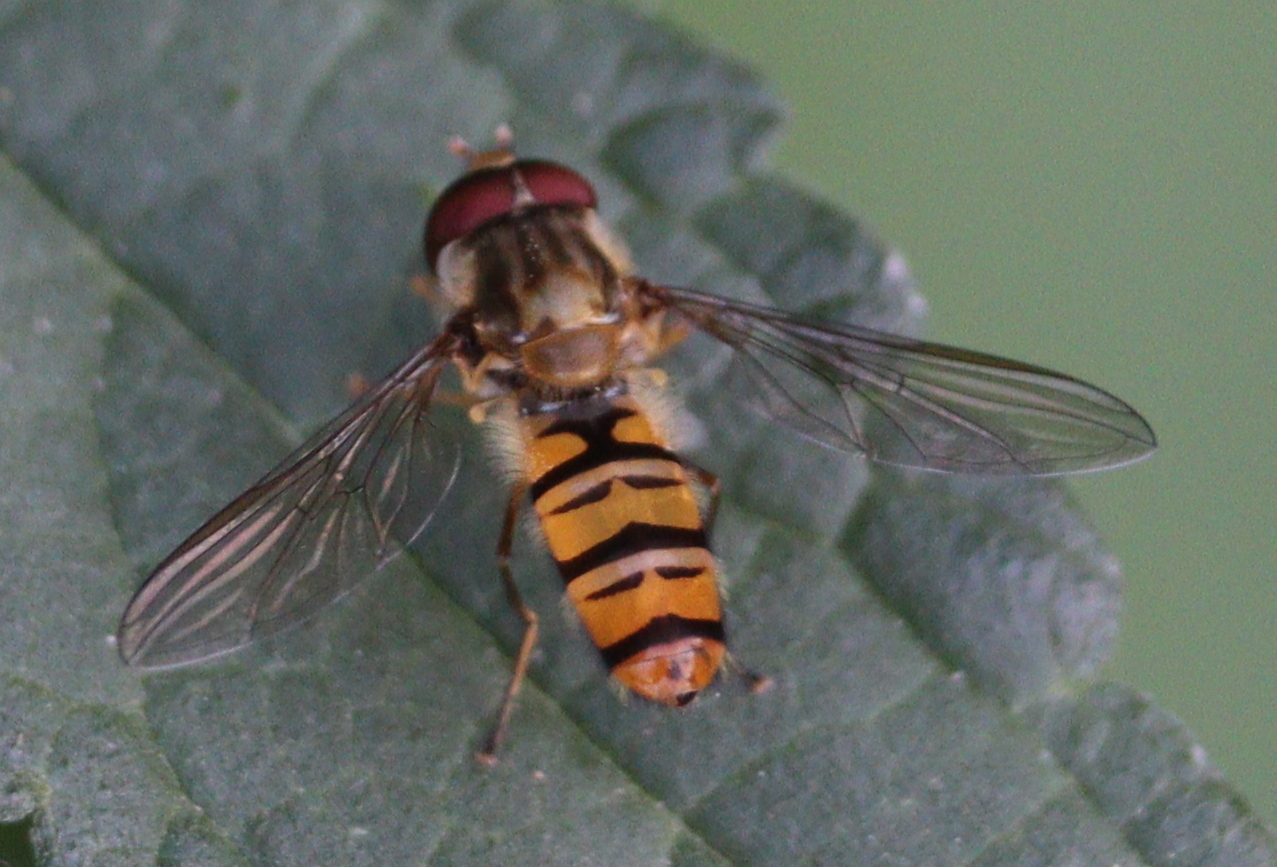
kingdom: Animalia
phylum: Arthropoda
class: Insecta
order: Diptera
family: Syrphidae
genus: Episyrphus
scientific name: Episyrphus balteatus
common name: Marmalade hoverfly
